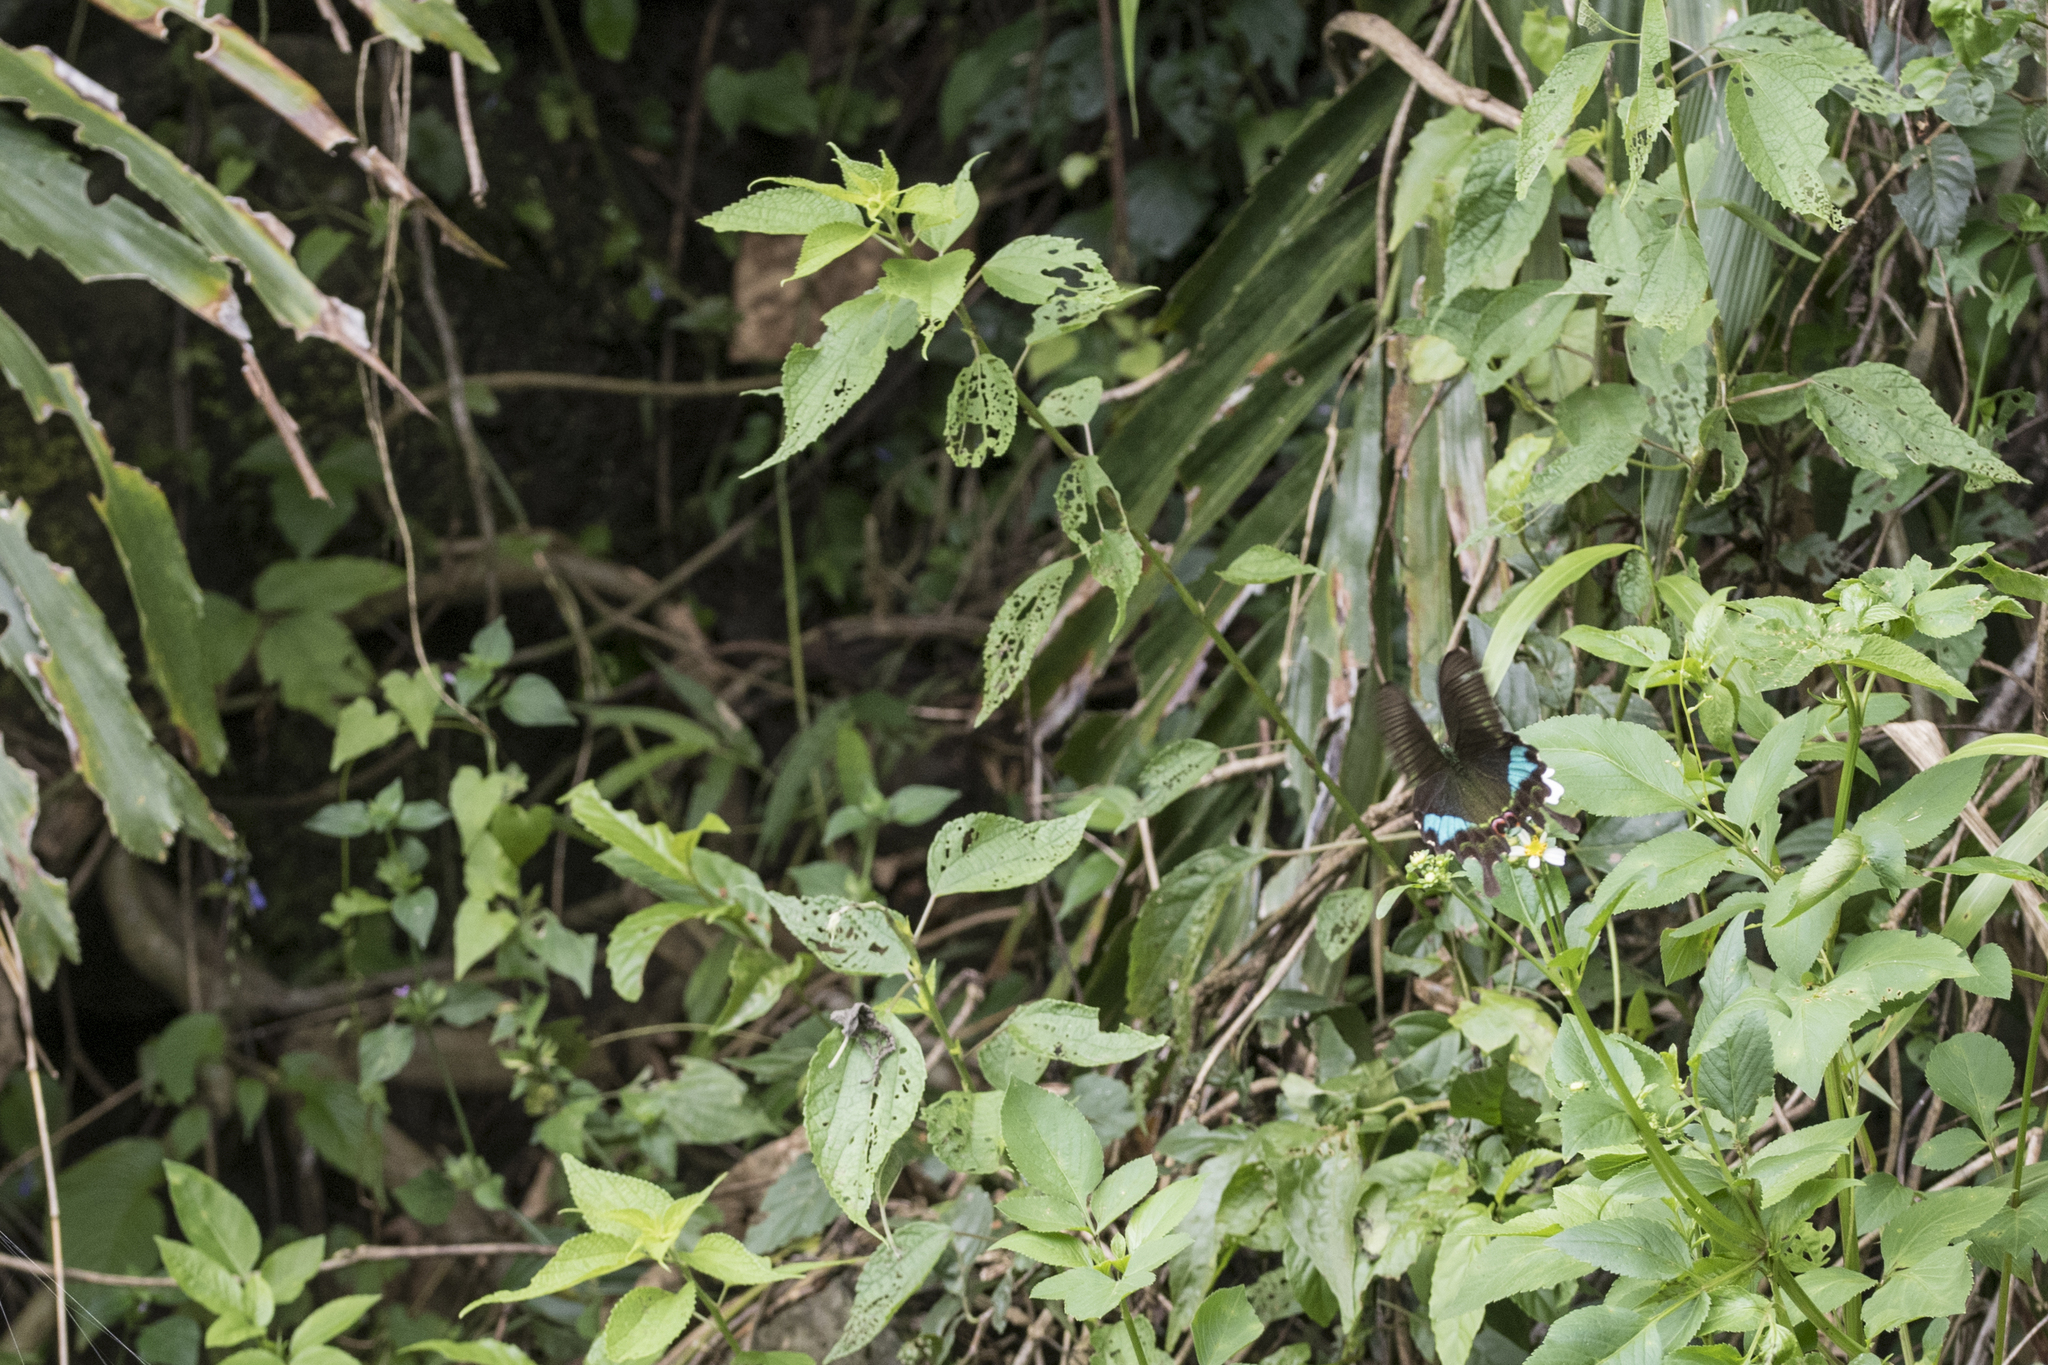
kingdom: Animalia
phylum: Arthropoda
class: Insecta
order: Lepidoptera
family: Papilionidae
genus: Papilio
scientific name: Papilio hermosanus
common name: Taiwanese glazed swallowtail
